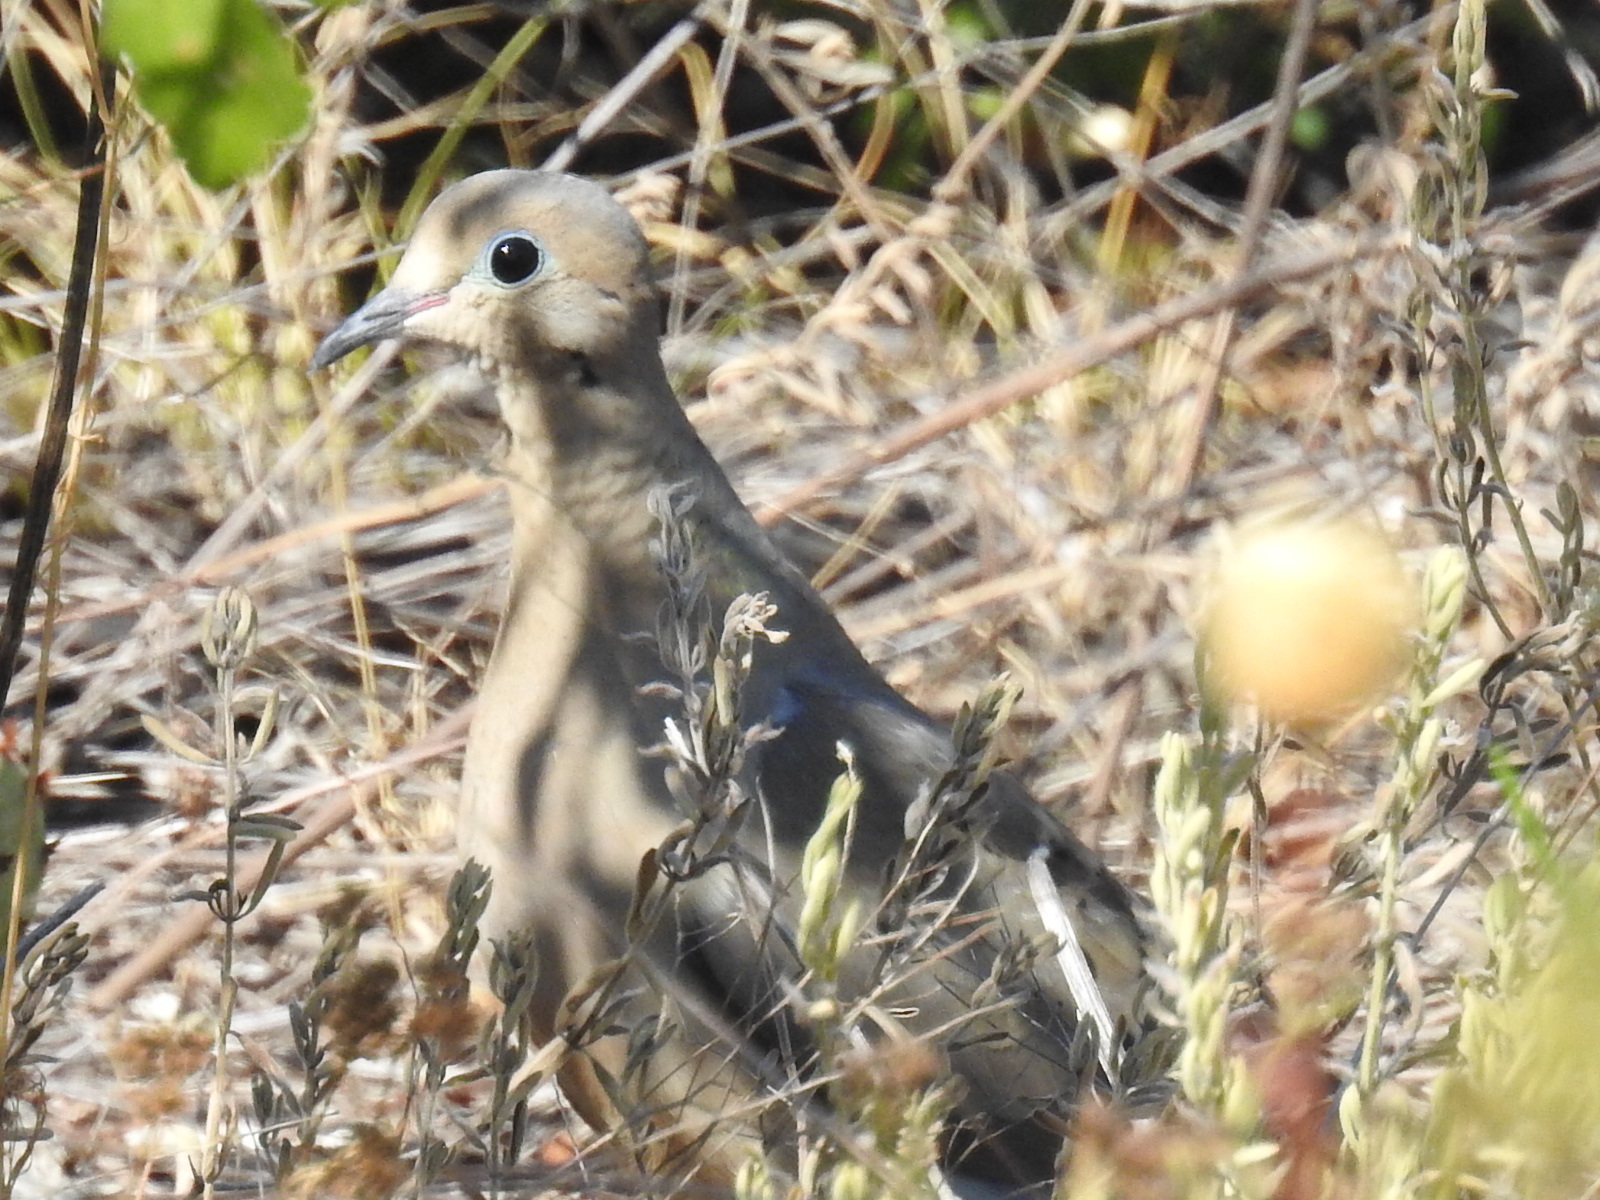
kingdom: Animalia
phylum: Chordata
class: Aves
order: Columbiformes
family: Columbidae
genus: Zenaida
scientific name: Zenaida macroura
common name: Mourning dove
